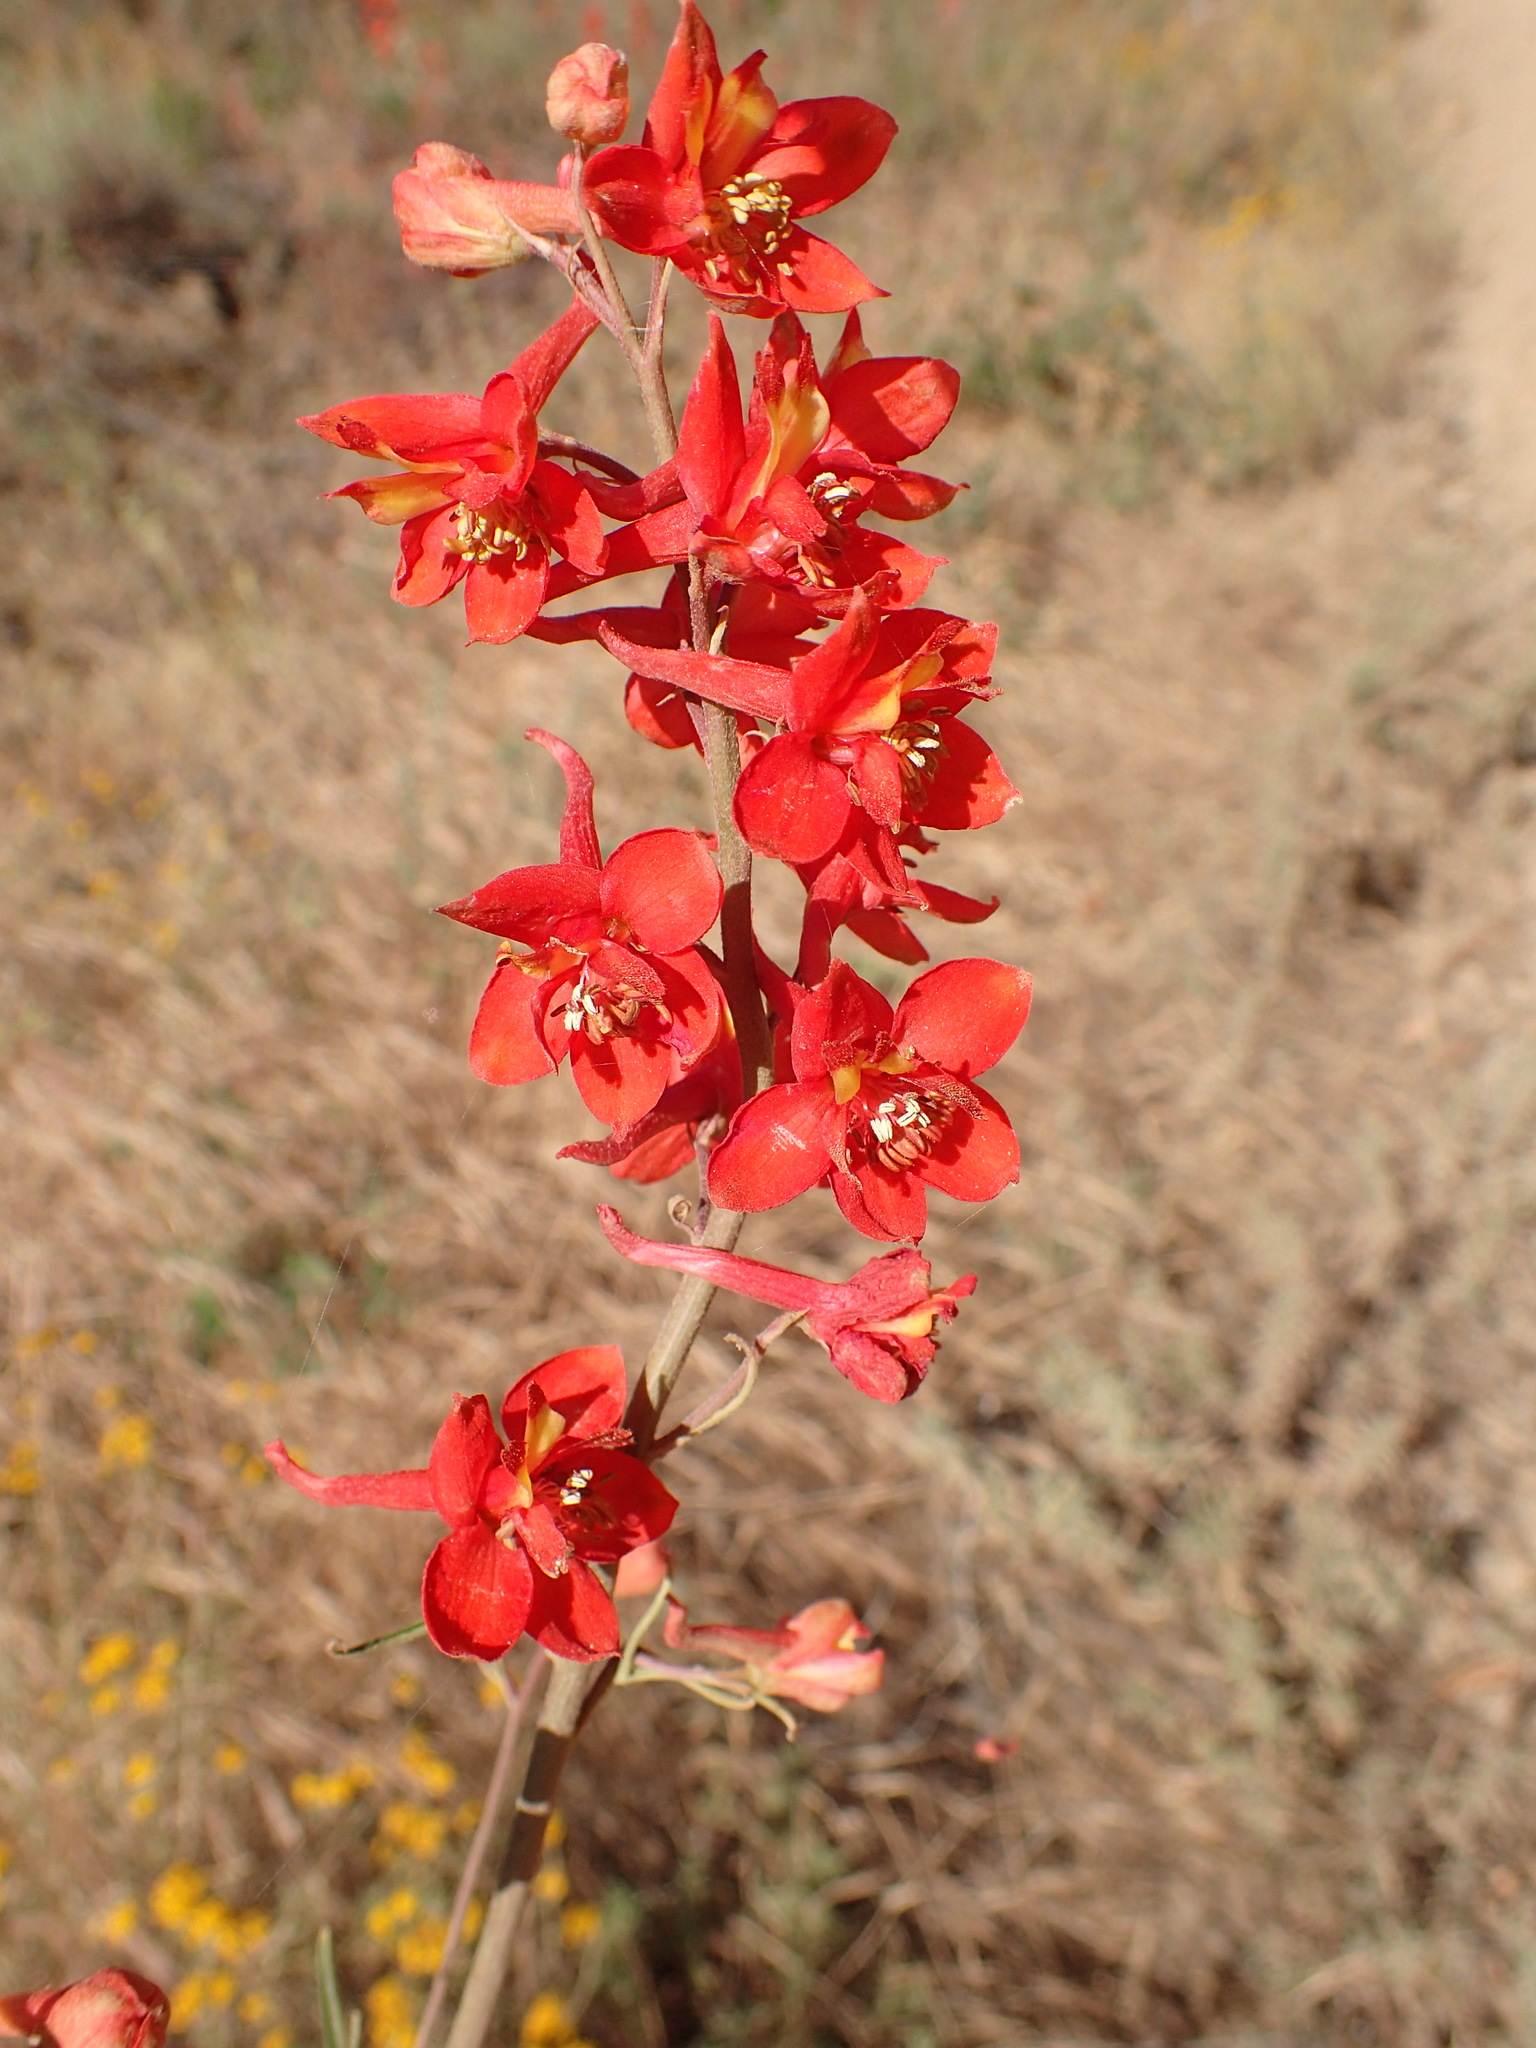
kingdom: Plantae
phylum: Tracheophyta
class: Magnoliopsida
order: Ranunculales
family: Ranunculaceae
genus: Delphinium
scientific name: Delphinium cardinale
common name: Scarlet larkspur
